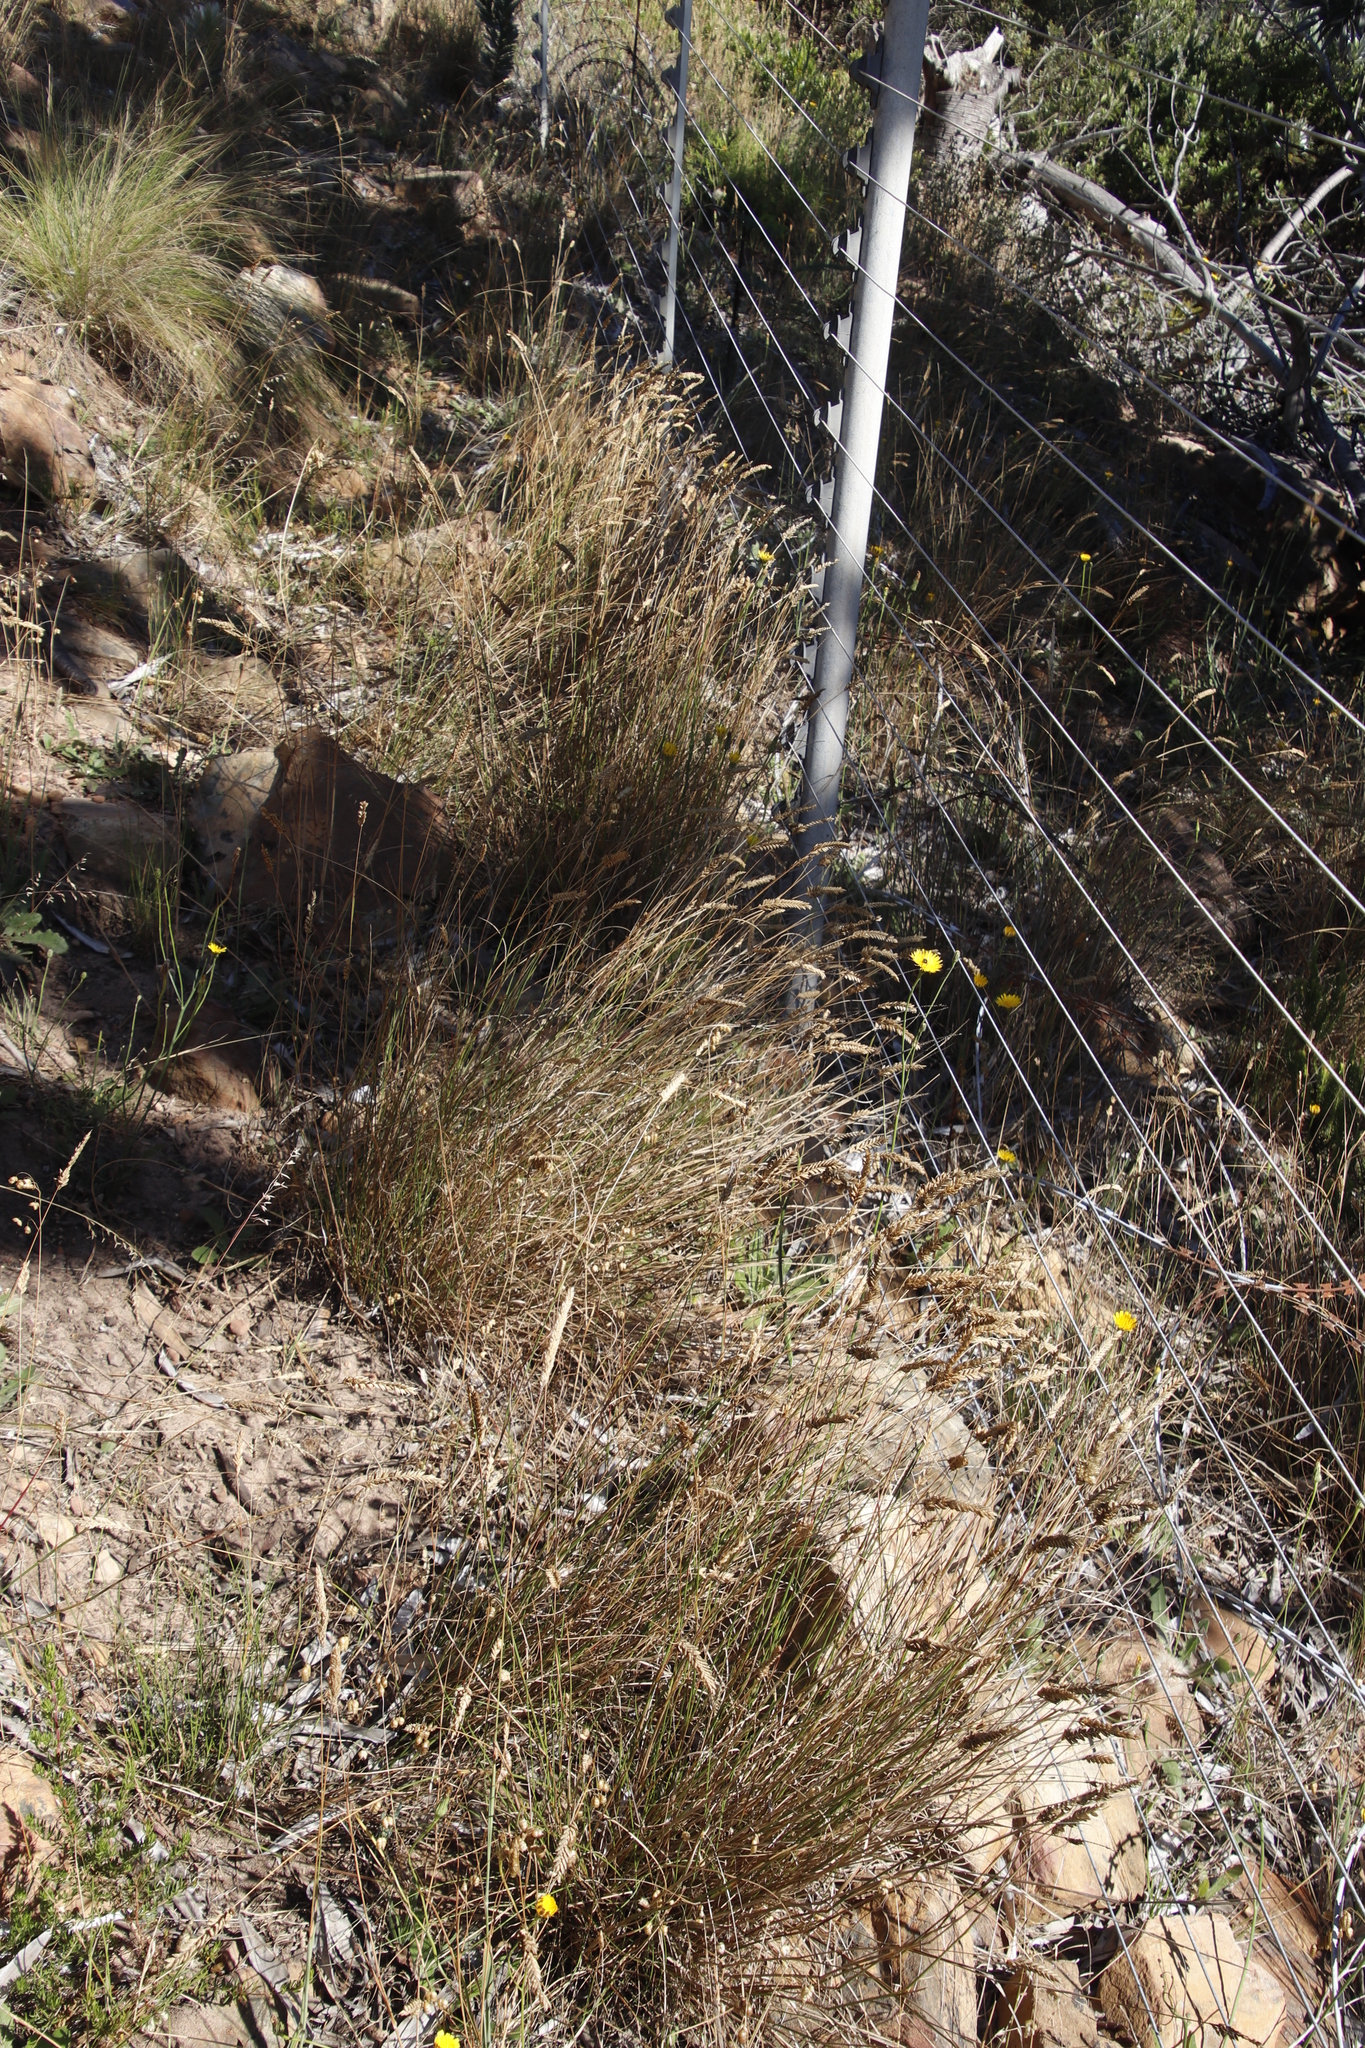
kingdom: Plantae
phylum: Tracheophyta
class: Liliopsida
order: Poales
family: Poaceae
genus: Tribolium
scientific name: Tribolium uniolae
